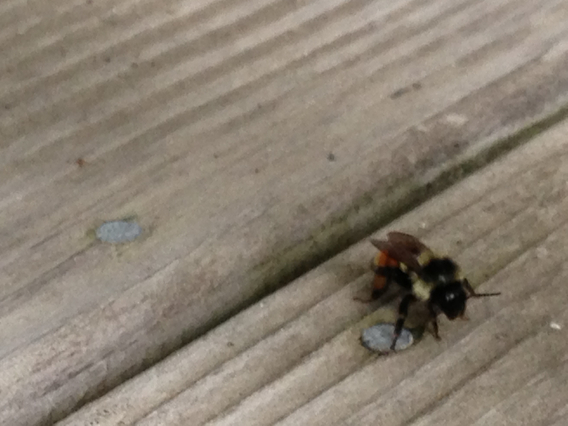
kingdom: Animalia
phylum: Arthropoda
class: Insecta
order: Hymenoptera
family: Apidae
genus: Bombus
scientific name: Bombus ternarius
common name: Tri-colored bumble bee
